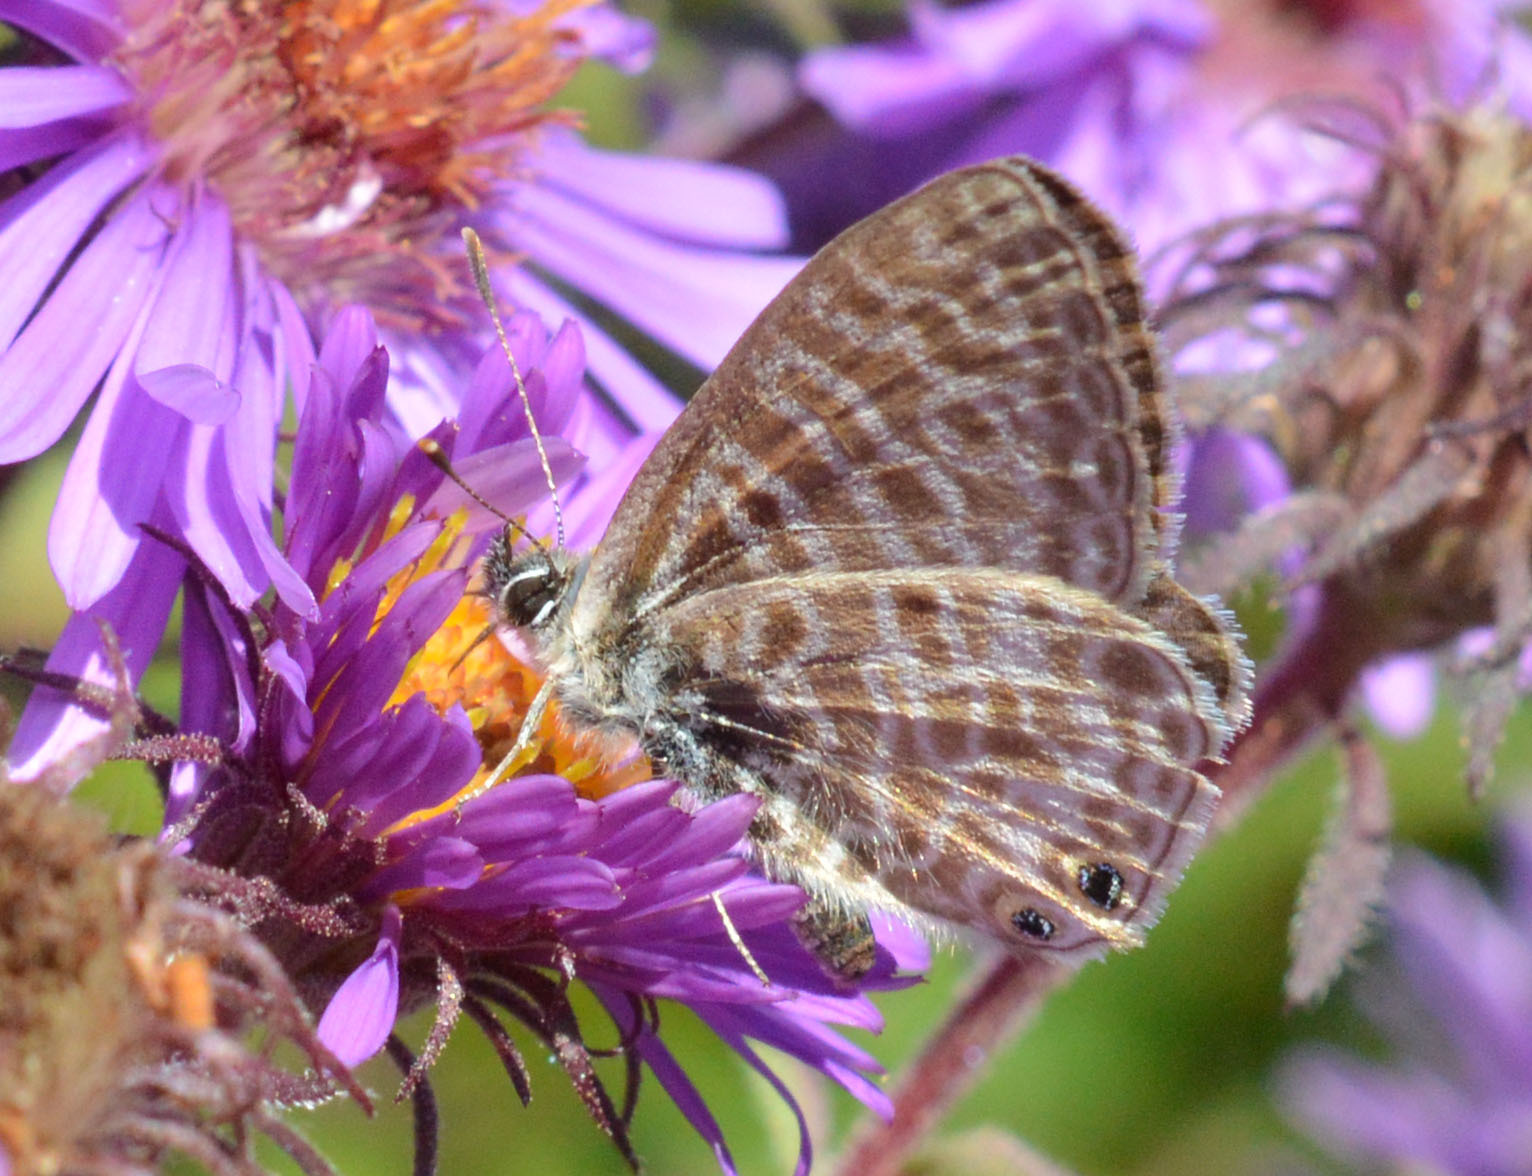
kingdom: Animalia
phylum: Arthropoda
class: Insecta
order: Lepidoptera
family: Lycaenidae
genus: Leptotes
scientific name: Leptotes pirithous
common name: Lang's short-tailed blue
